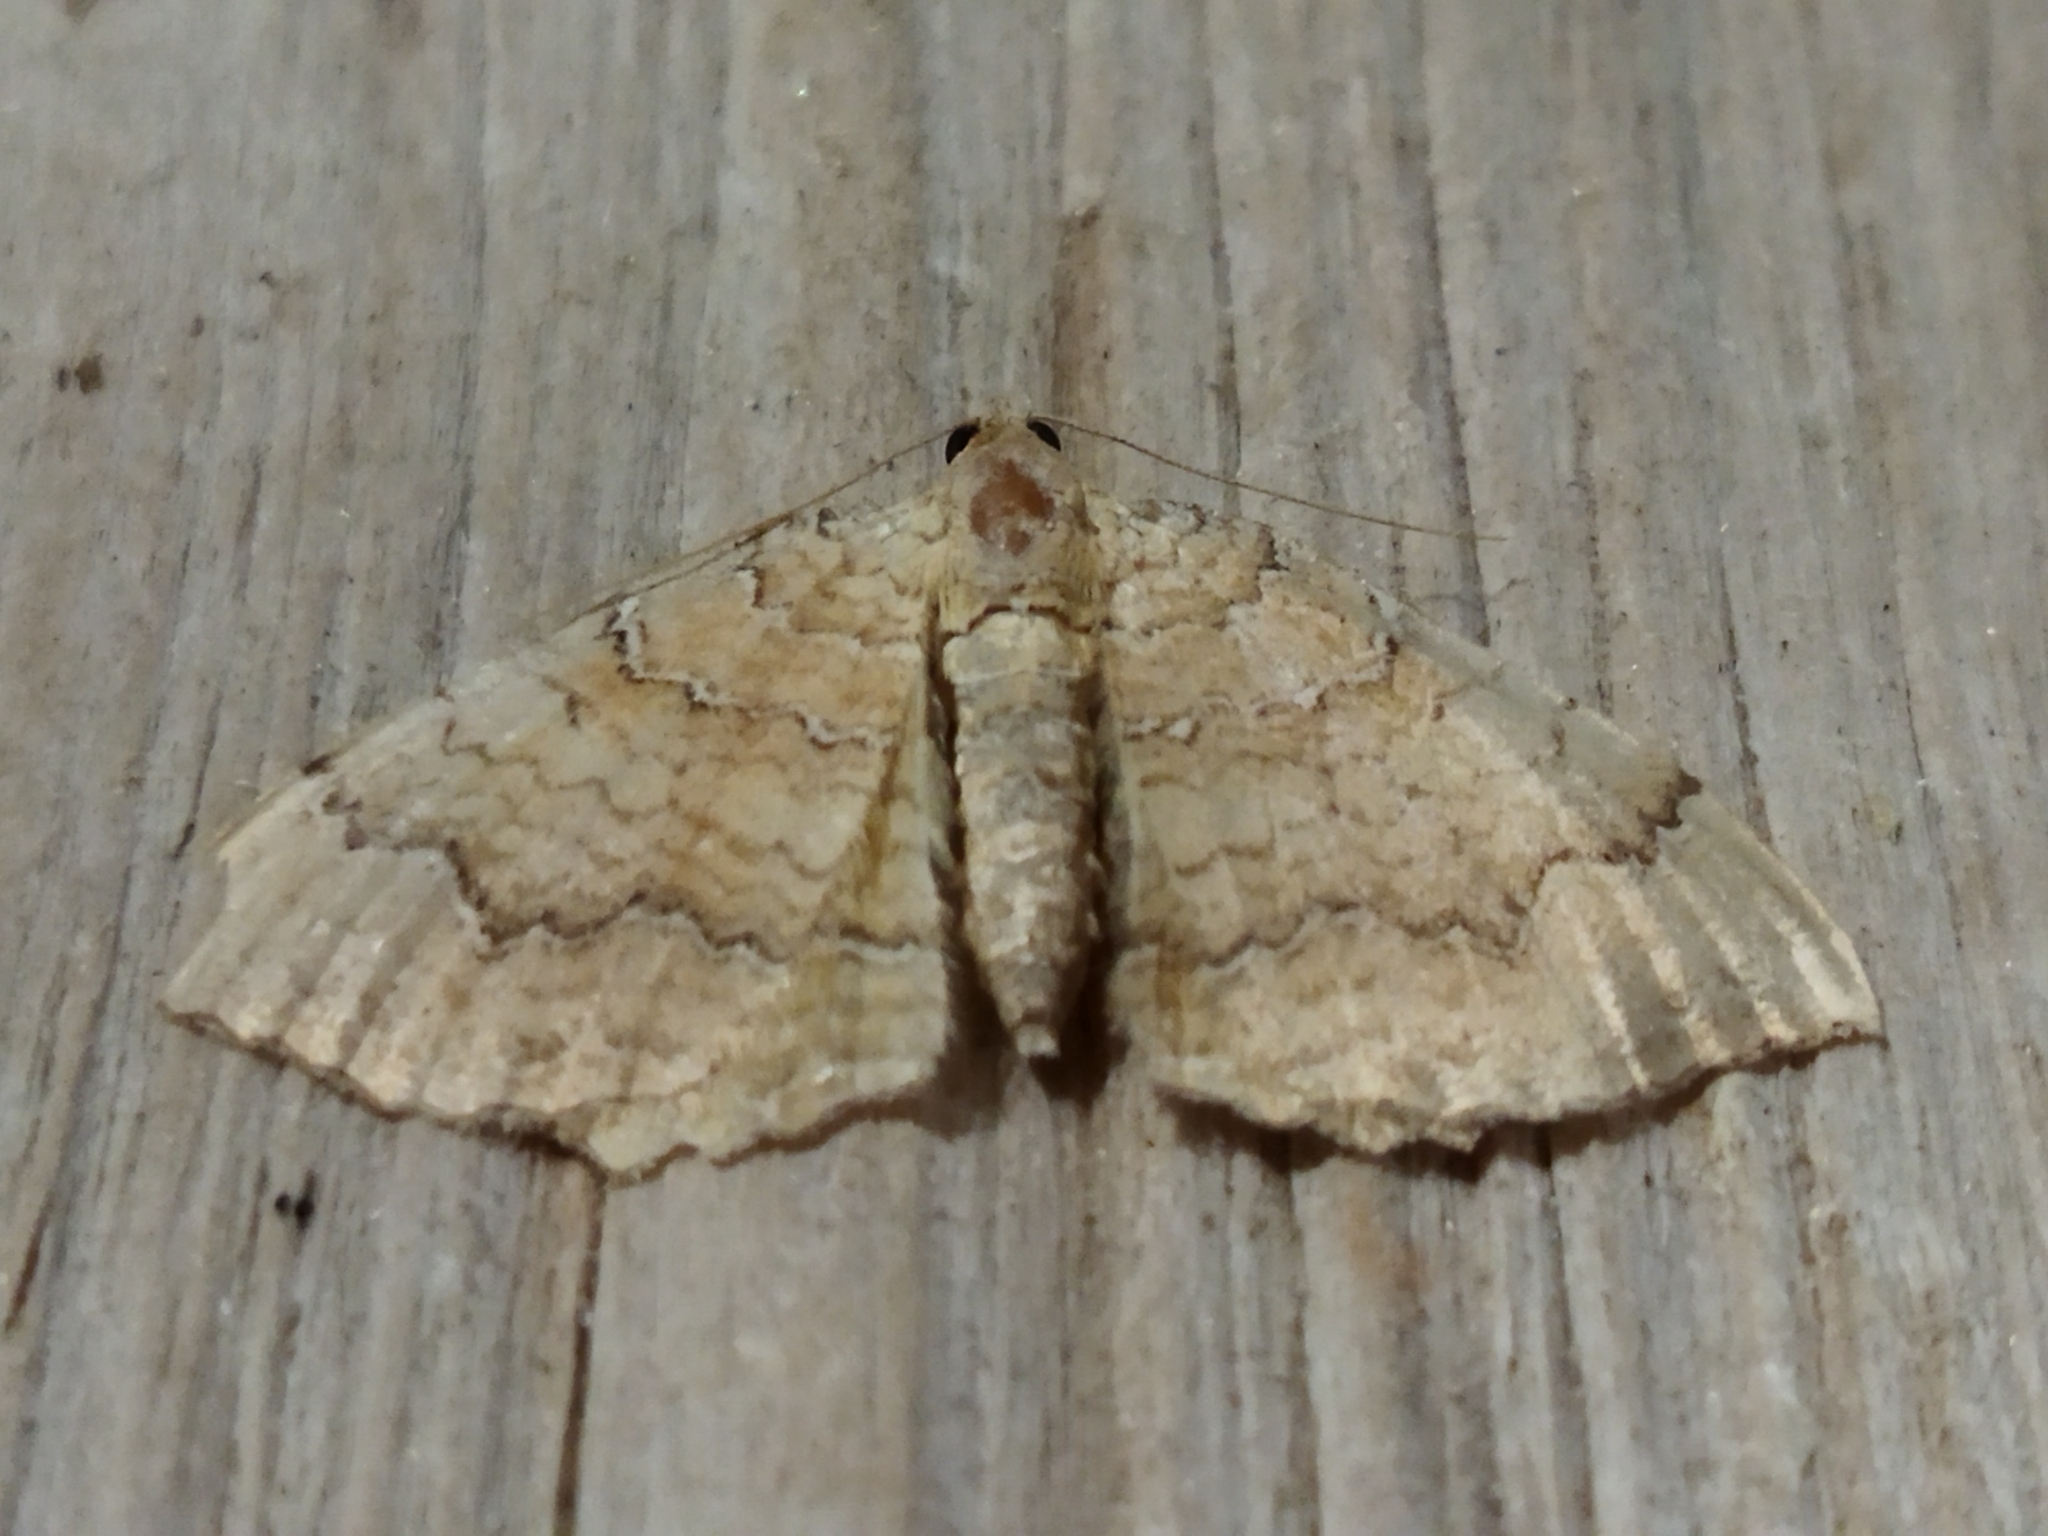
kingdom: Animalia
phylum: Arthropoda
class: Insecta
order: Lepidoptera
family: Geometridae
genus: Camptogramma
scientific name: Camptogramma bilineata
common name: Yellow shell
